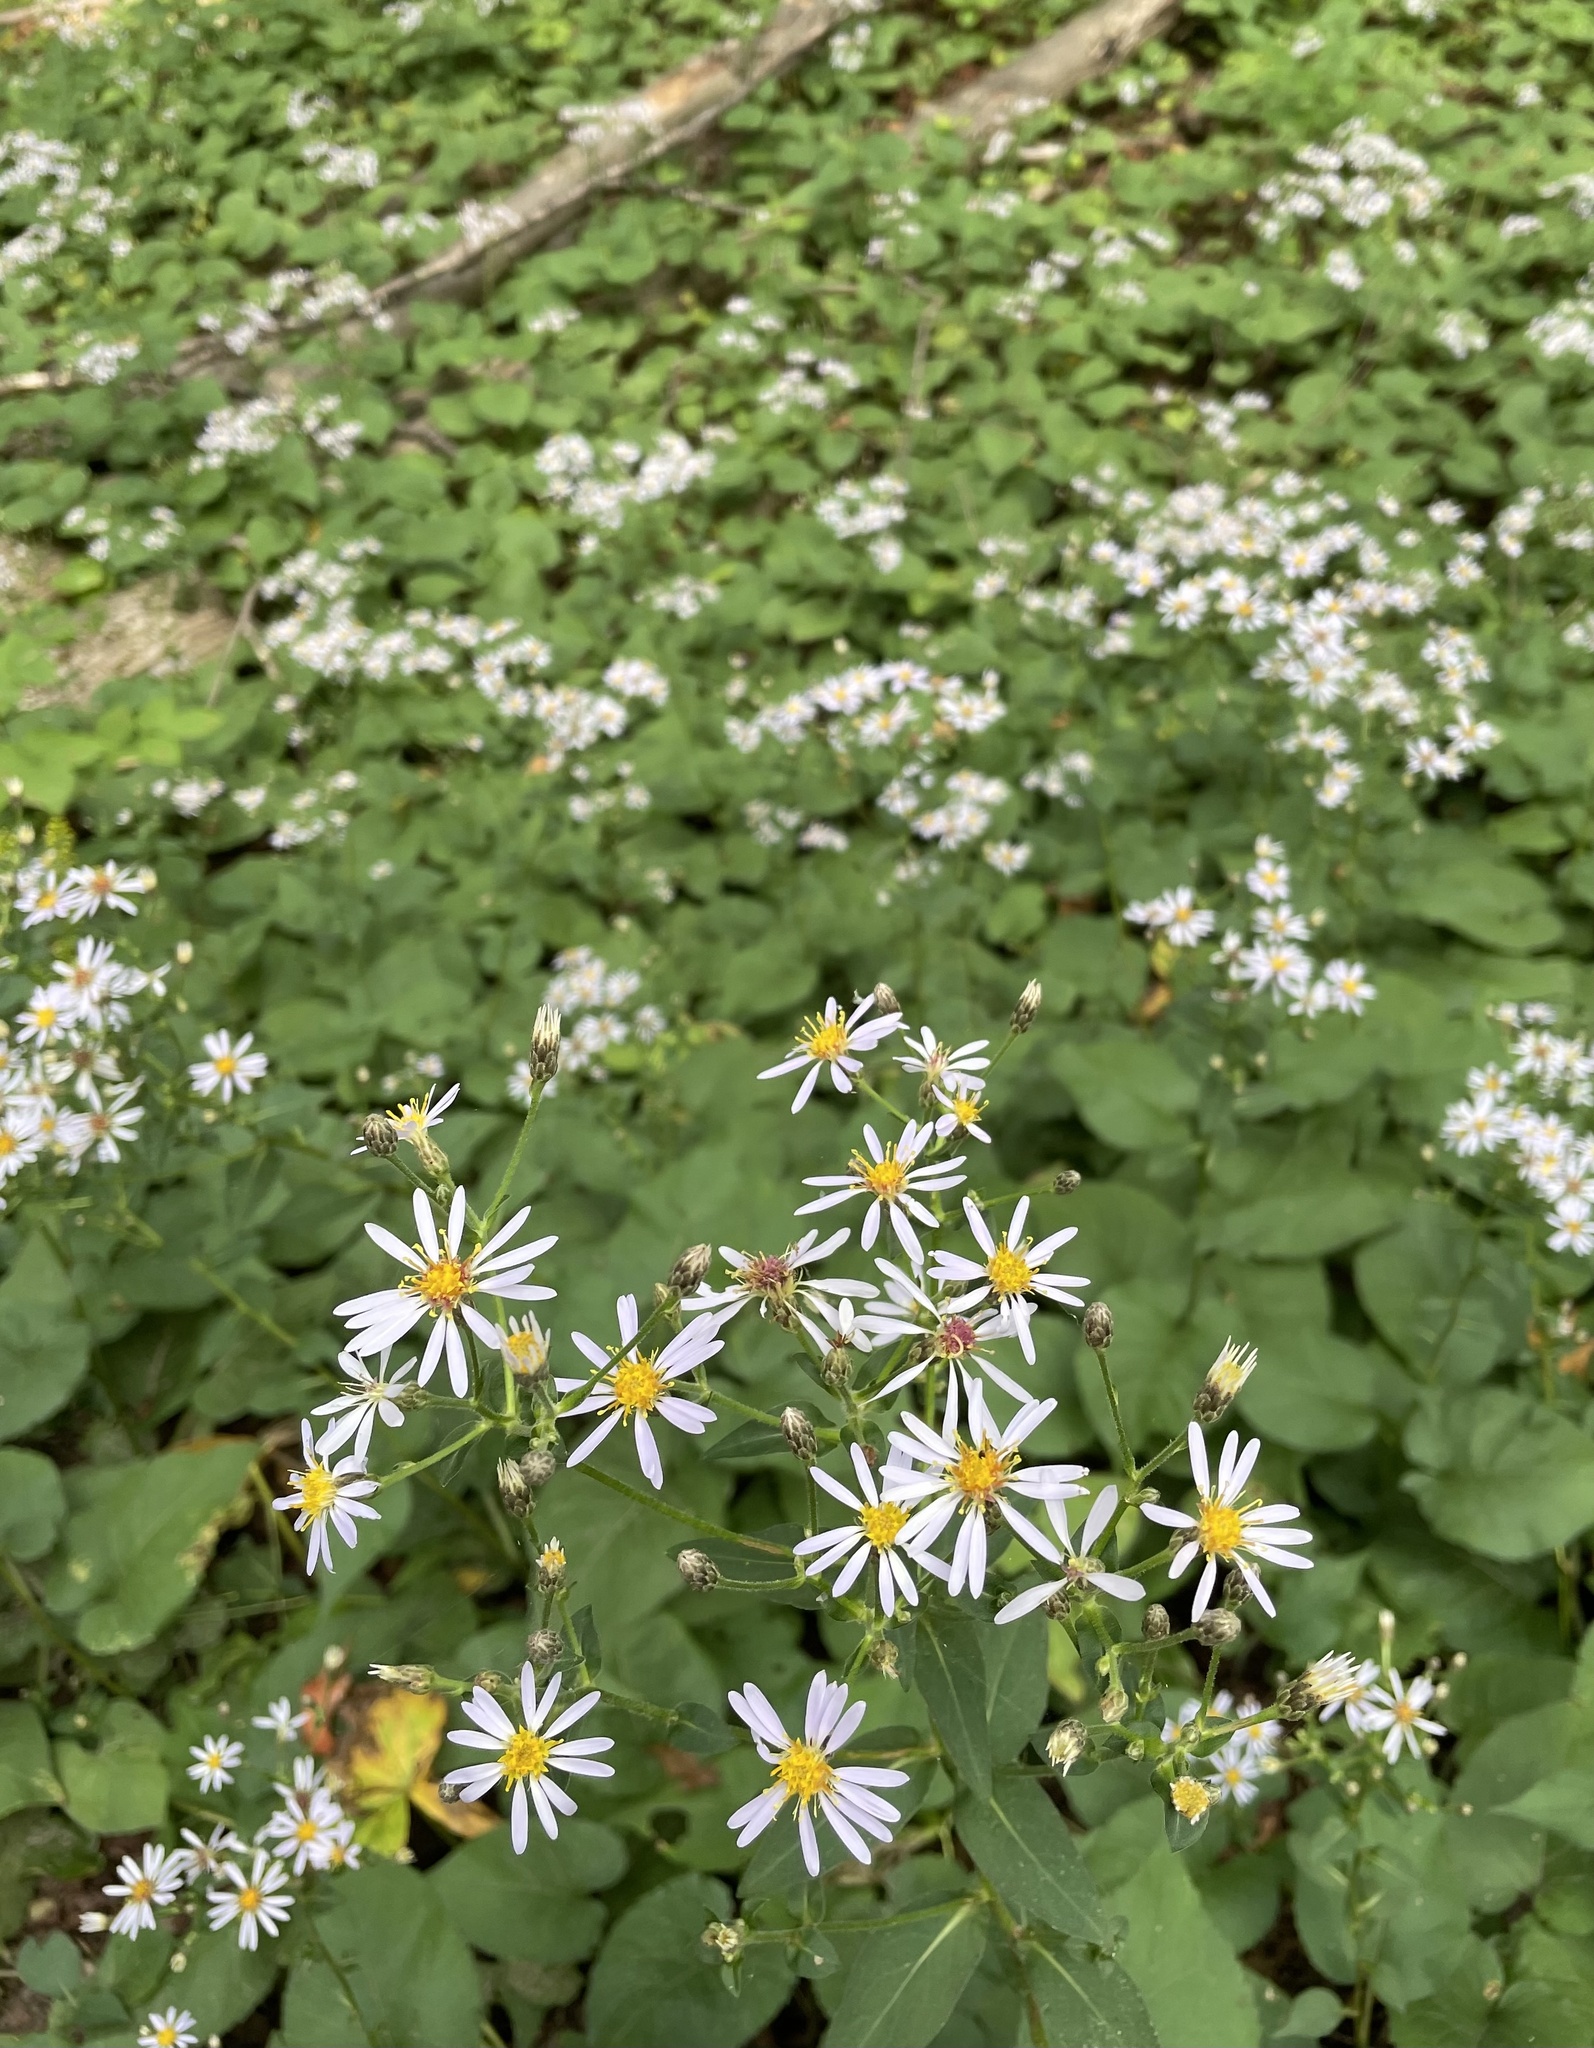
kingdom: Plantae
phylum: Tracheophyta
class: Magnoliopsida
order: Asterales
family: Asteraceae
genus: Eurybia
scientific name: Eurybia macrophylla
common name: Big-leaved aster
